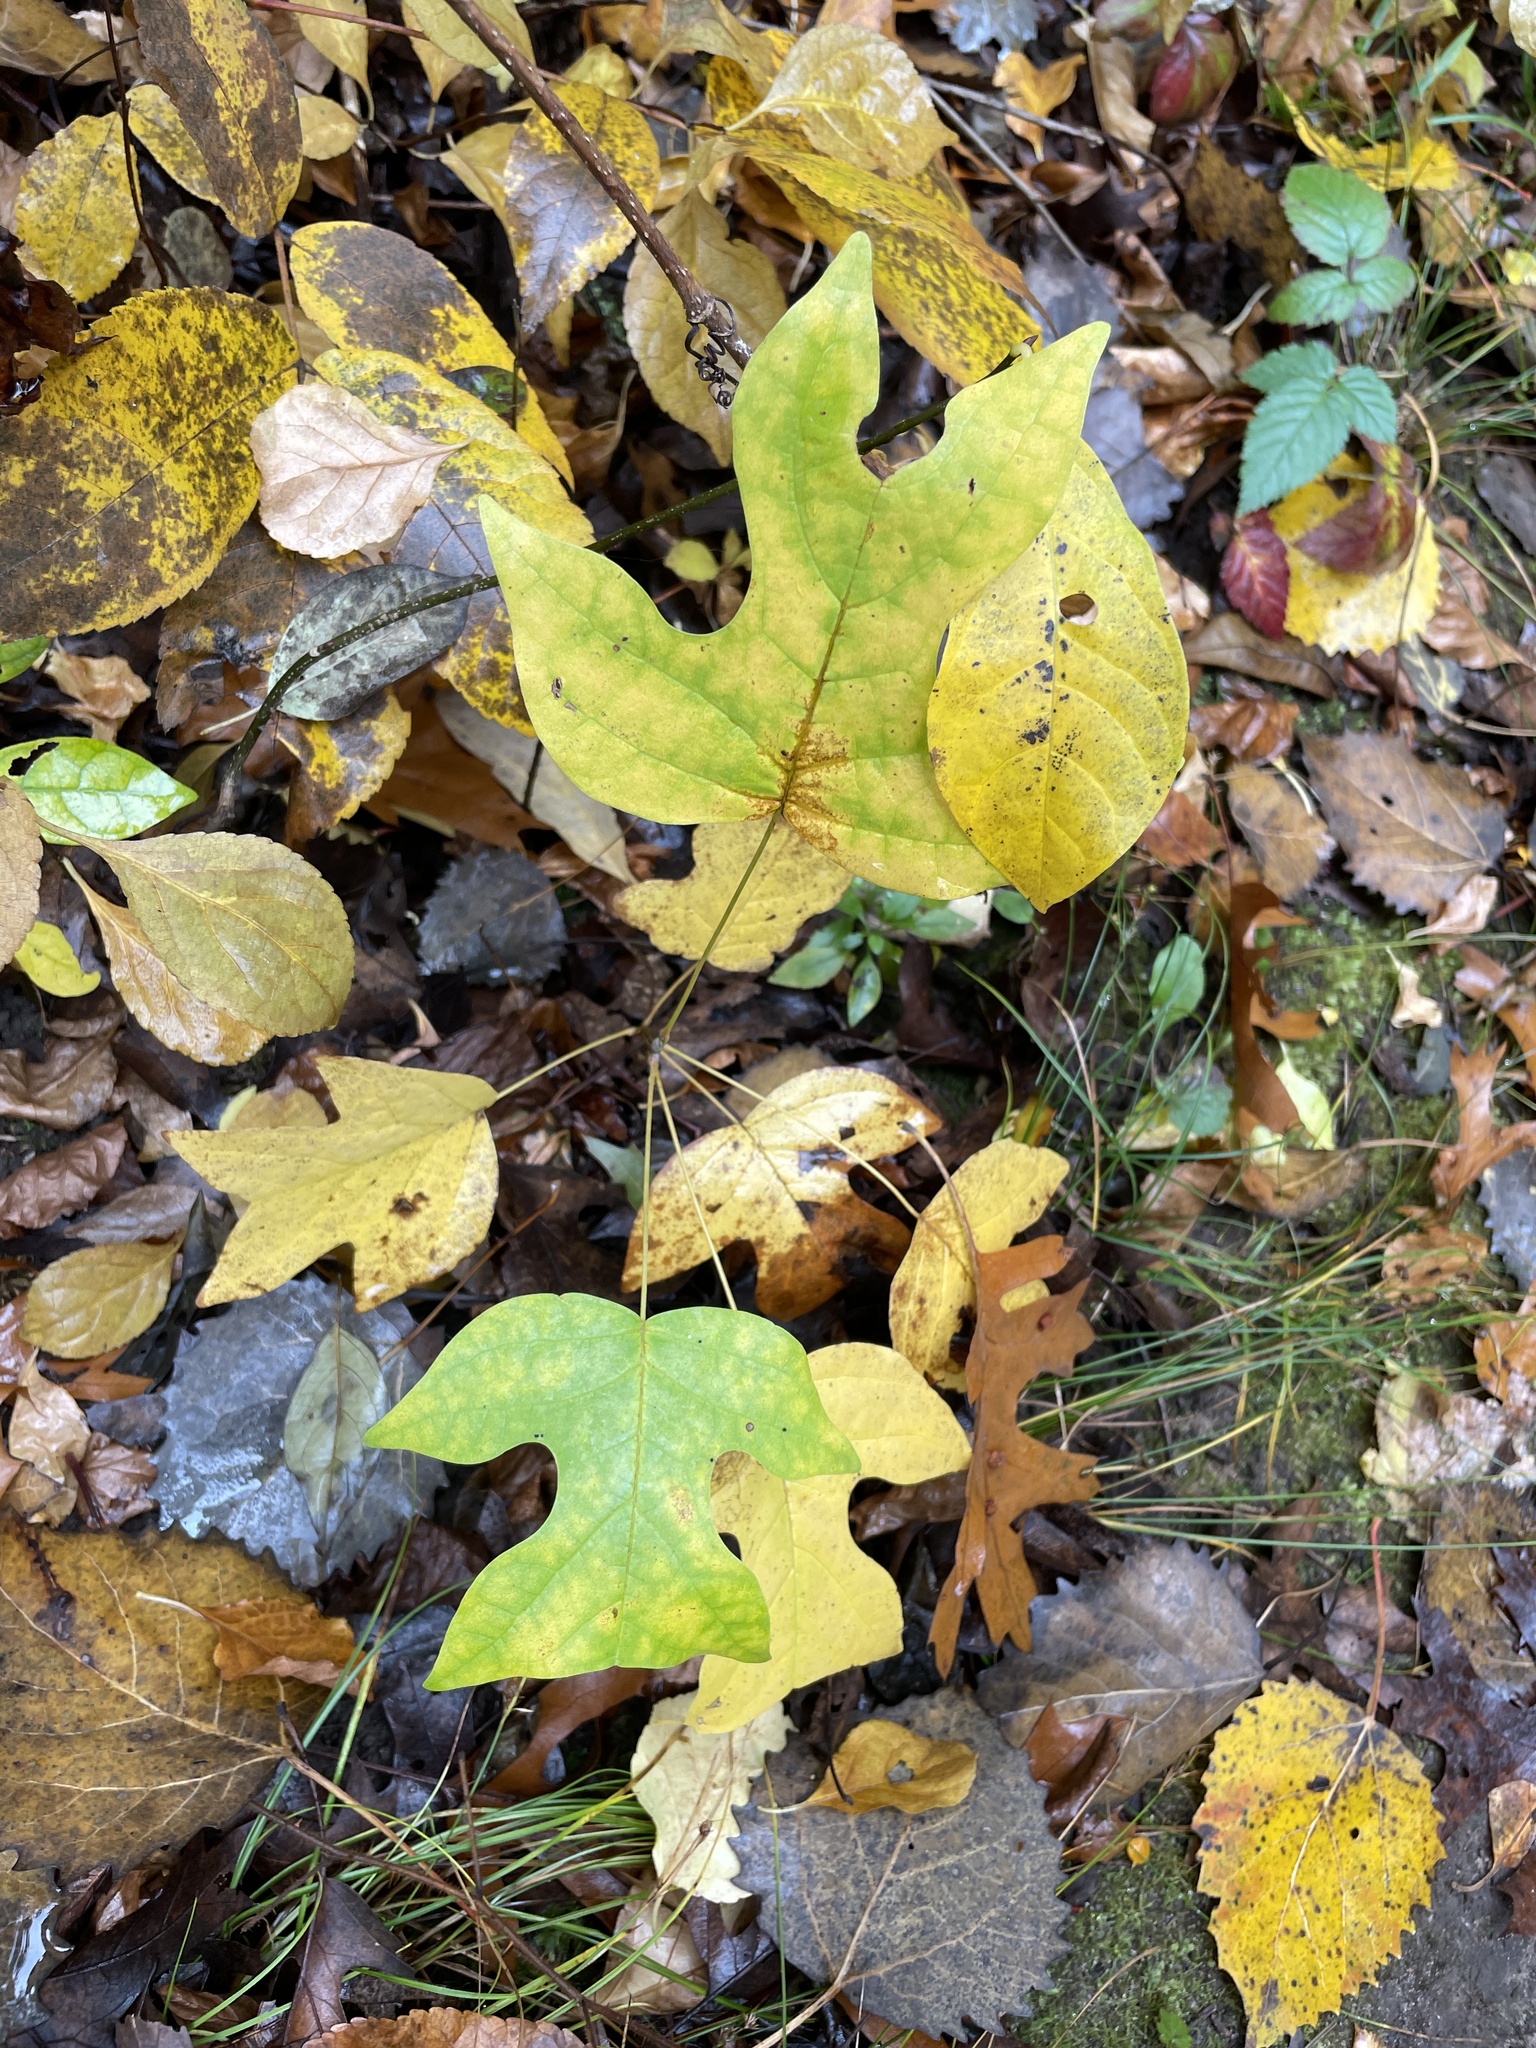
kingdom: Plantae
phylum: Tracheophyta
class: Magnoliopsida
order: Magnoliales
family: Magnoliaceae
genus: Liriodendron
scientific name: Liriodendron tulipifera
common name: Tulip tree
